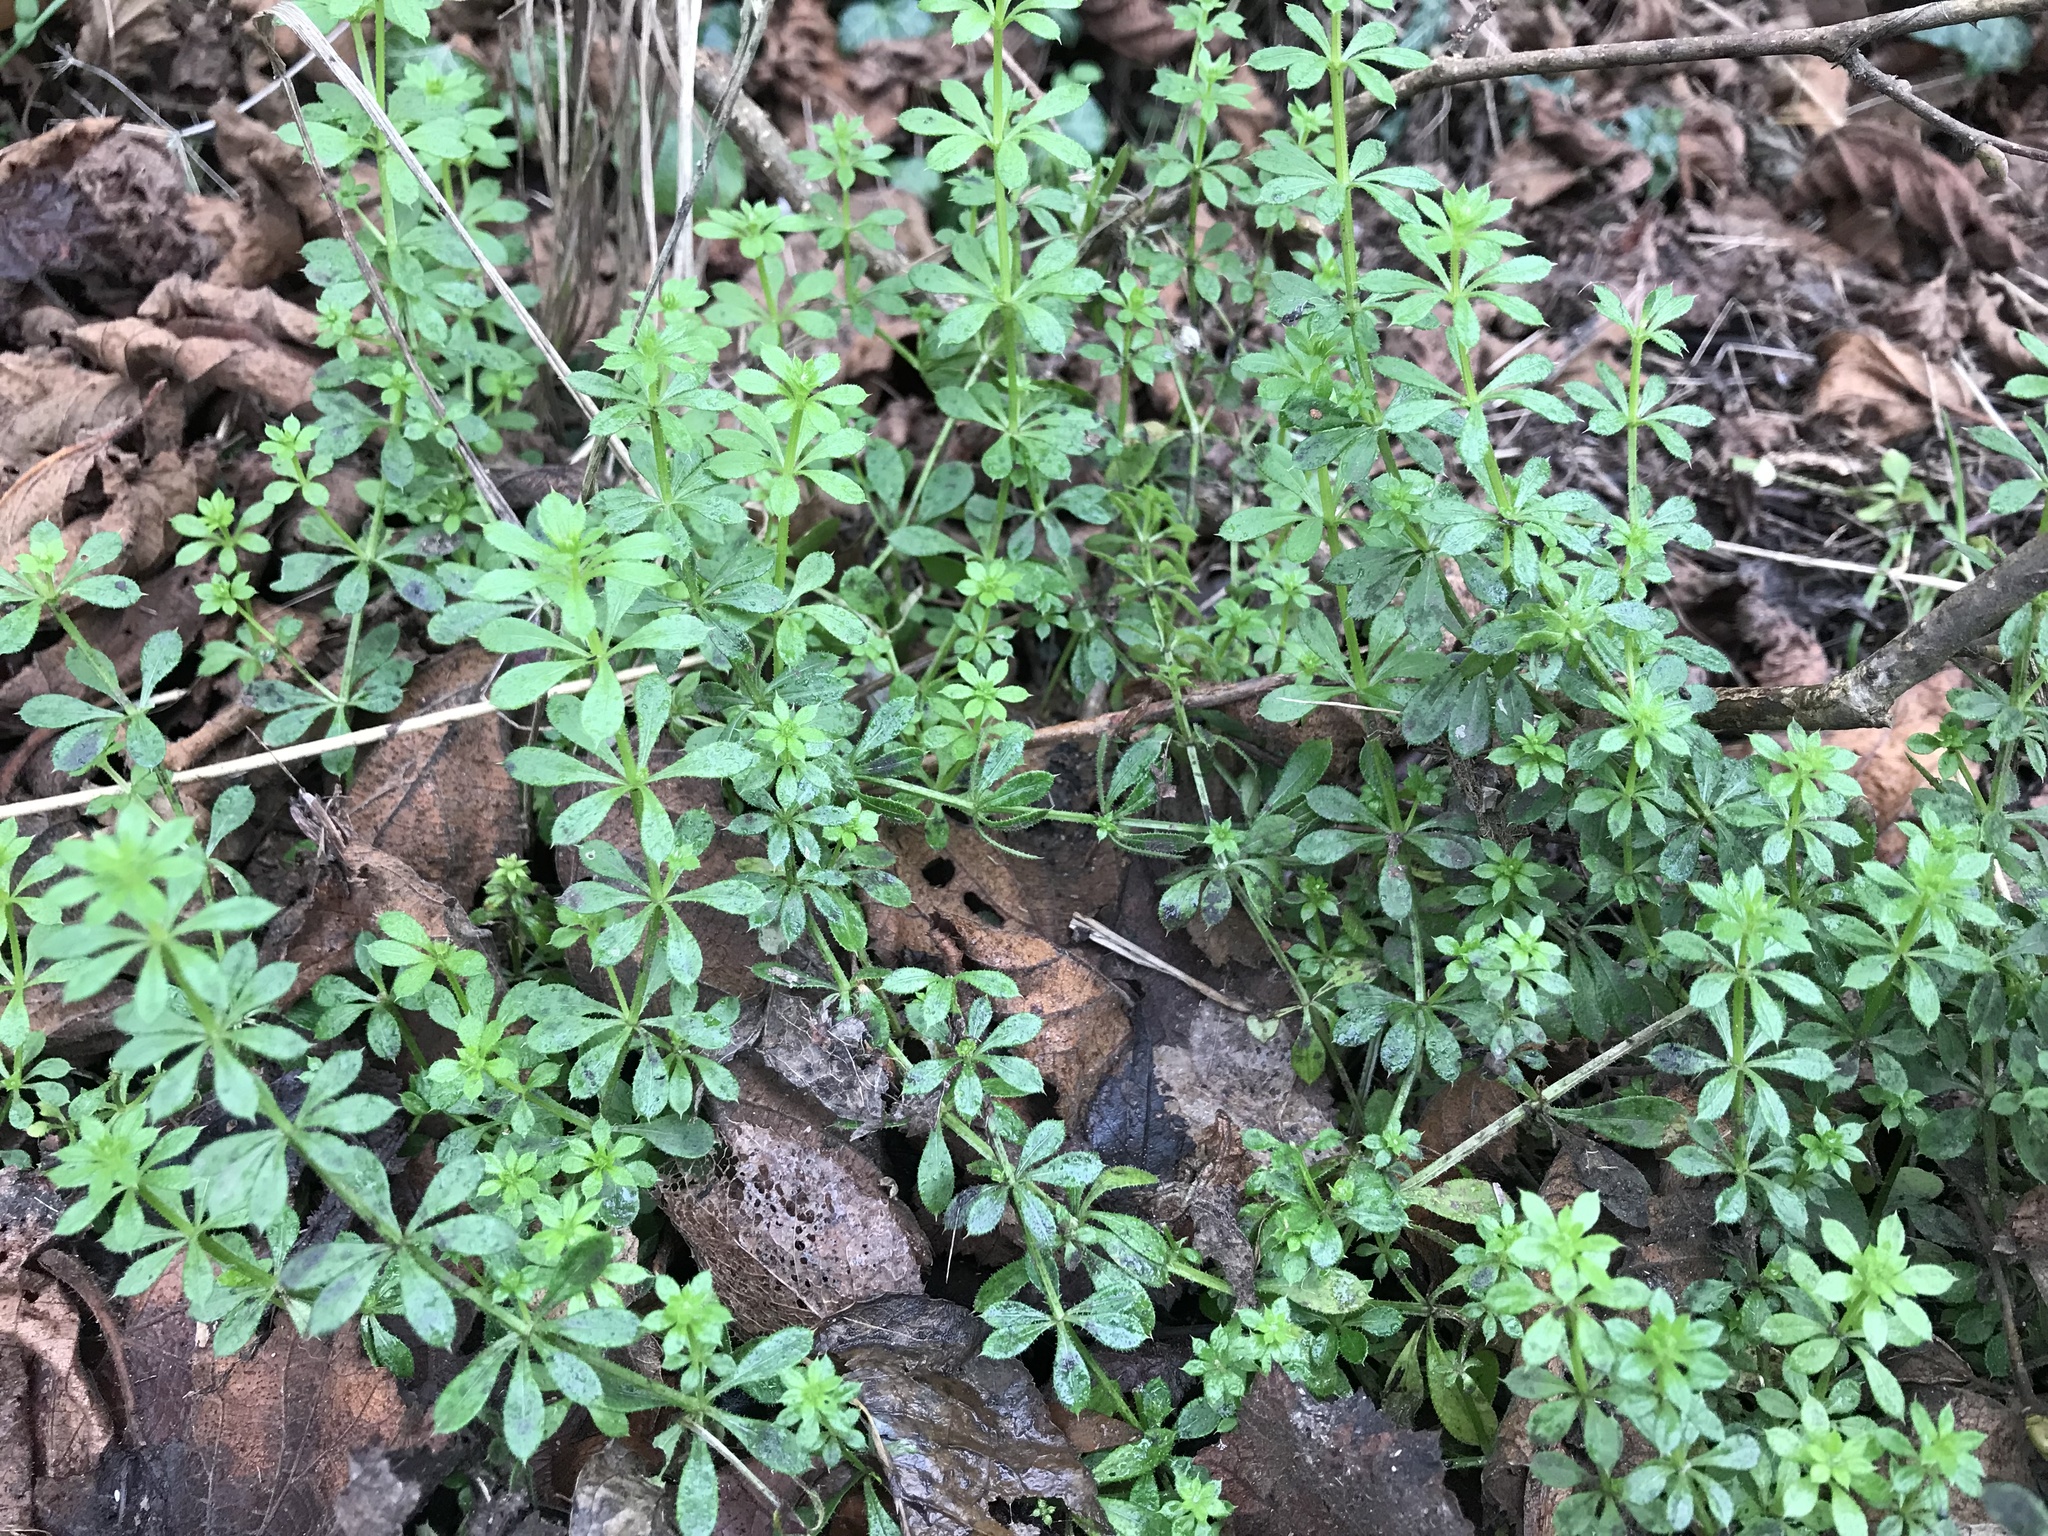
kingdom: Plantae
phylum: Tracheophyta
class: Magnoliopsida
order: Gentianales
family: Rubiaceae
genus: Galium
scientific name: Galium aparine
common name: Cleavers
